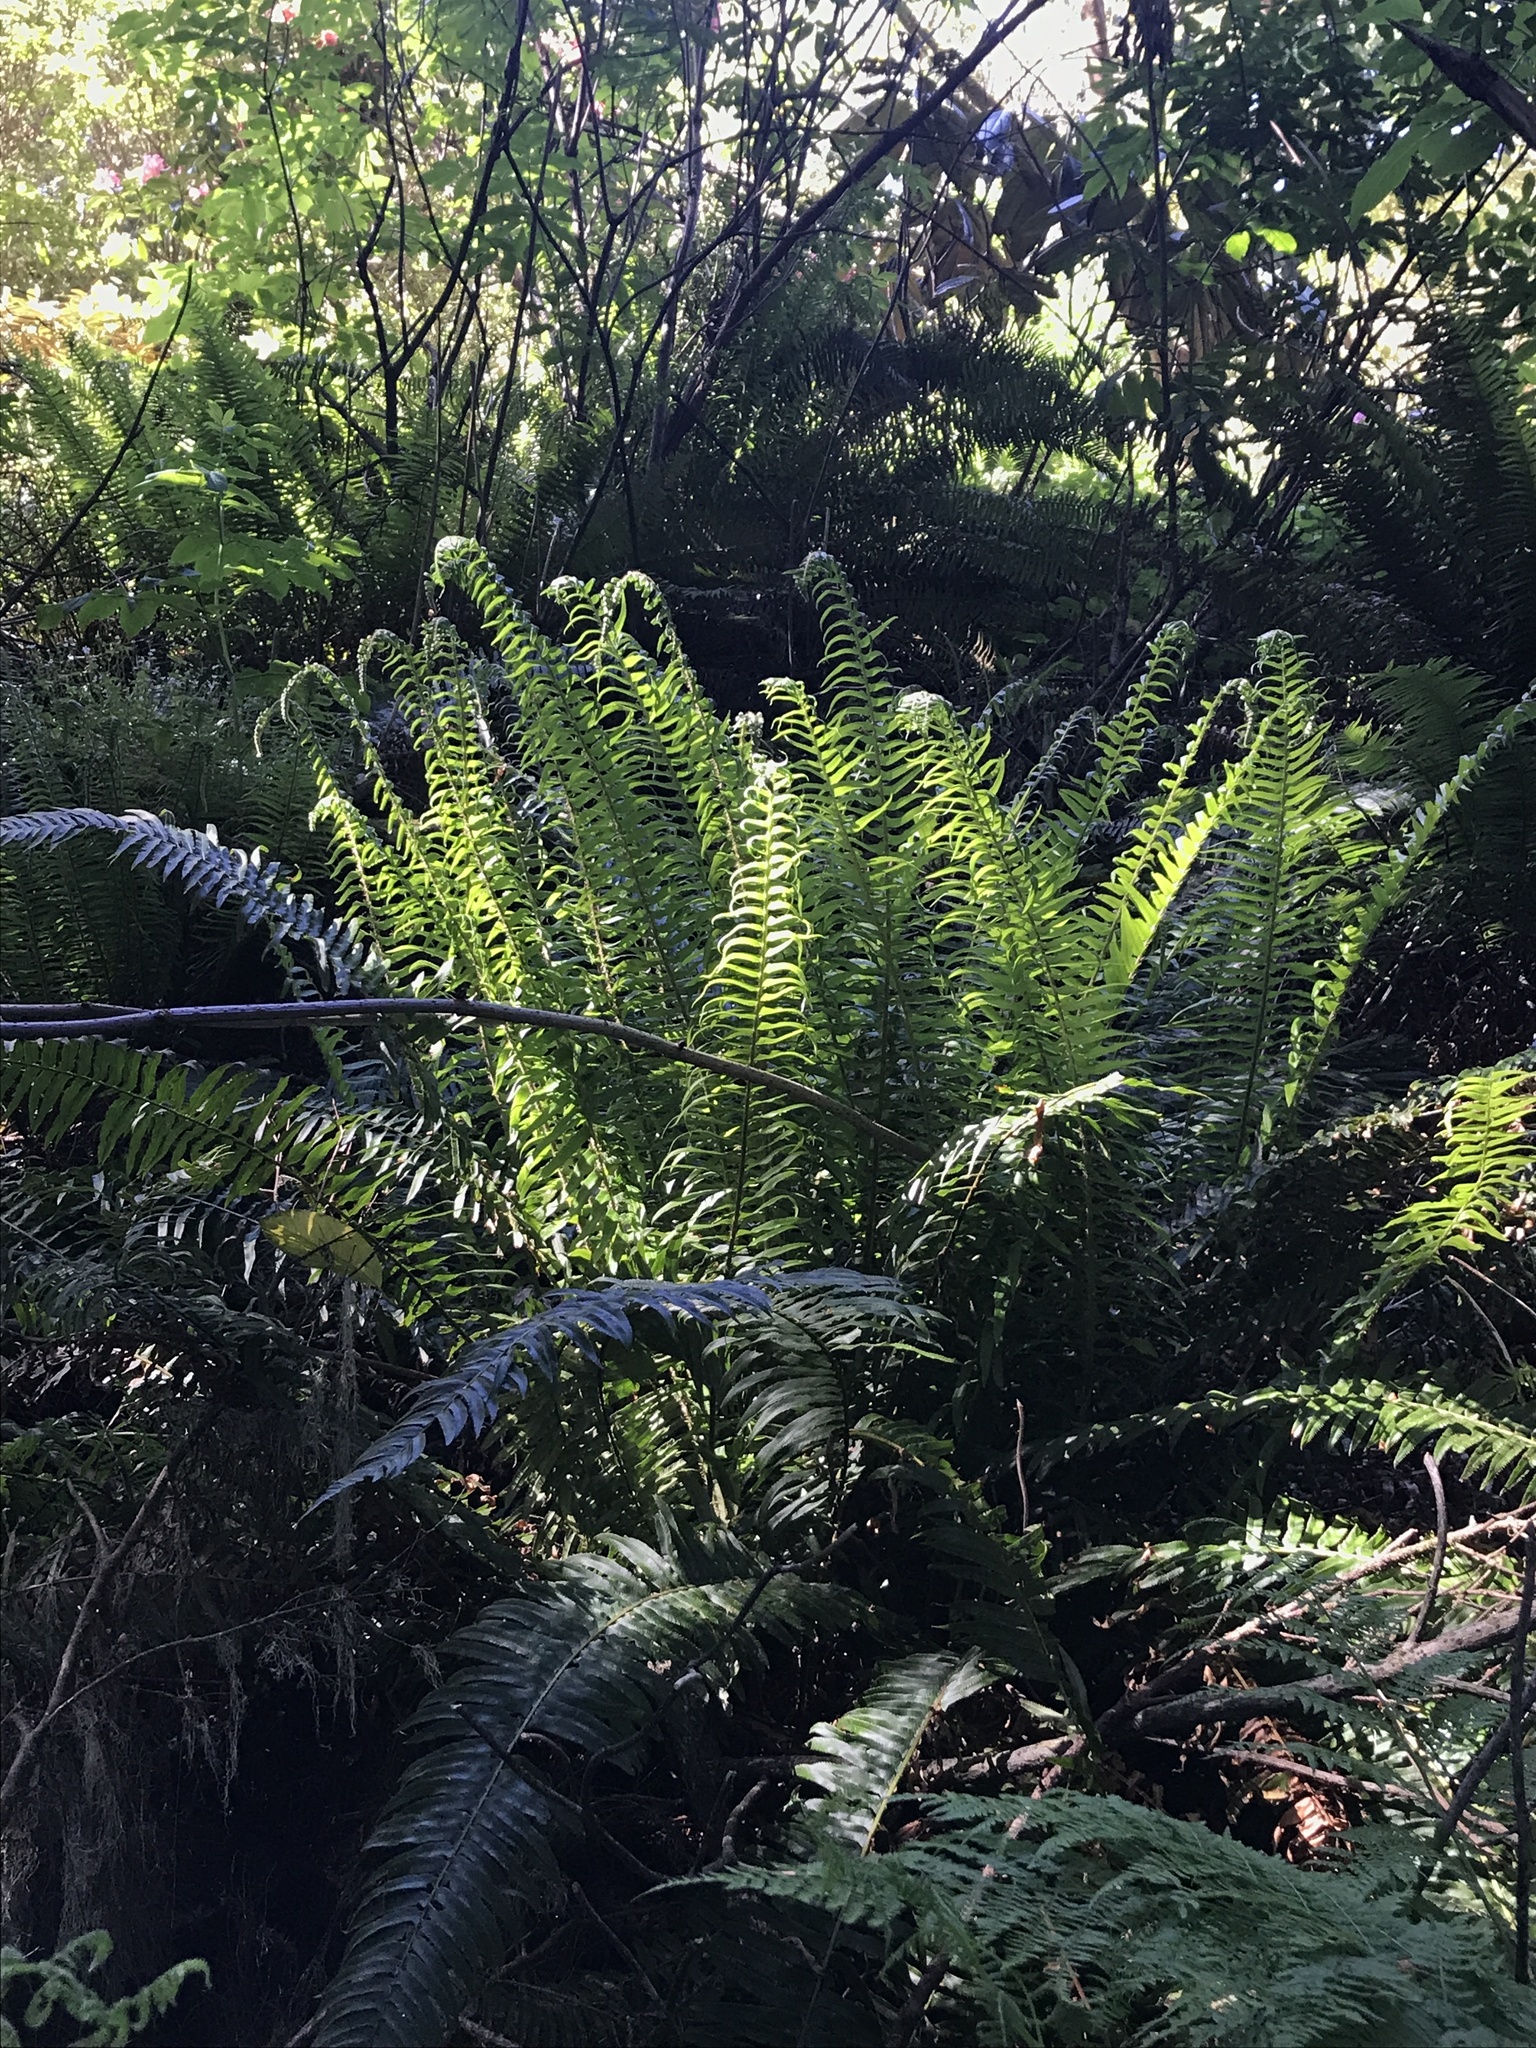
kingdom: Plantae
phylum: Tracheophyta
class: Polypodiopsida
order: Polypodiales
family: Dryopteridaceae
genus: Polystichum
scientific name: Polystichum munitum
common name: Western sword-fern
